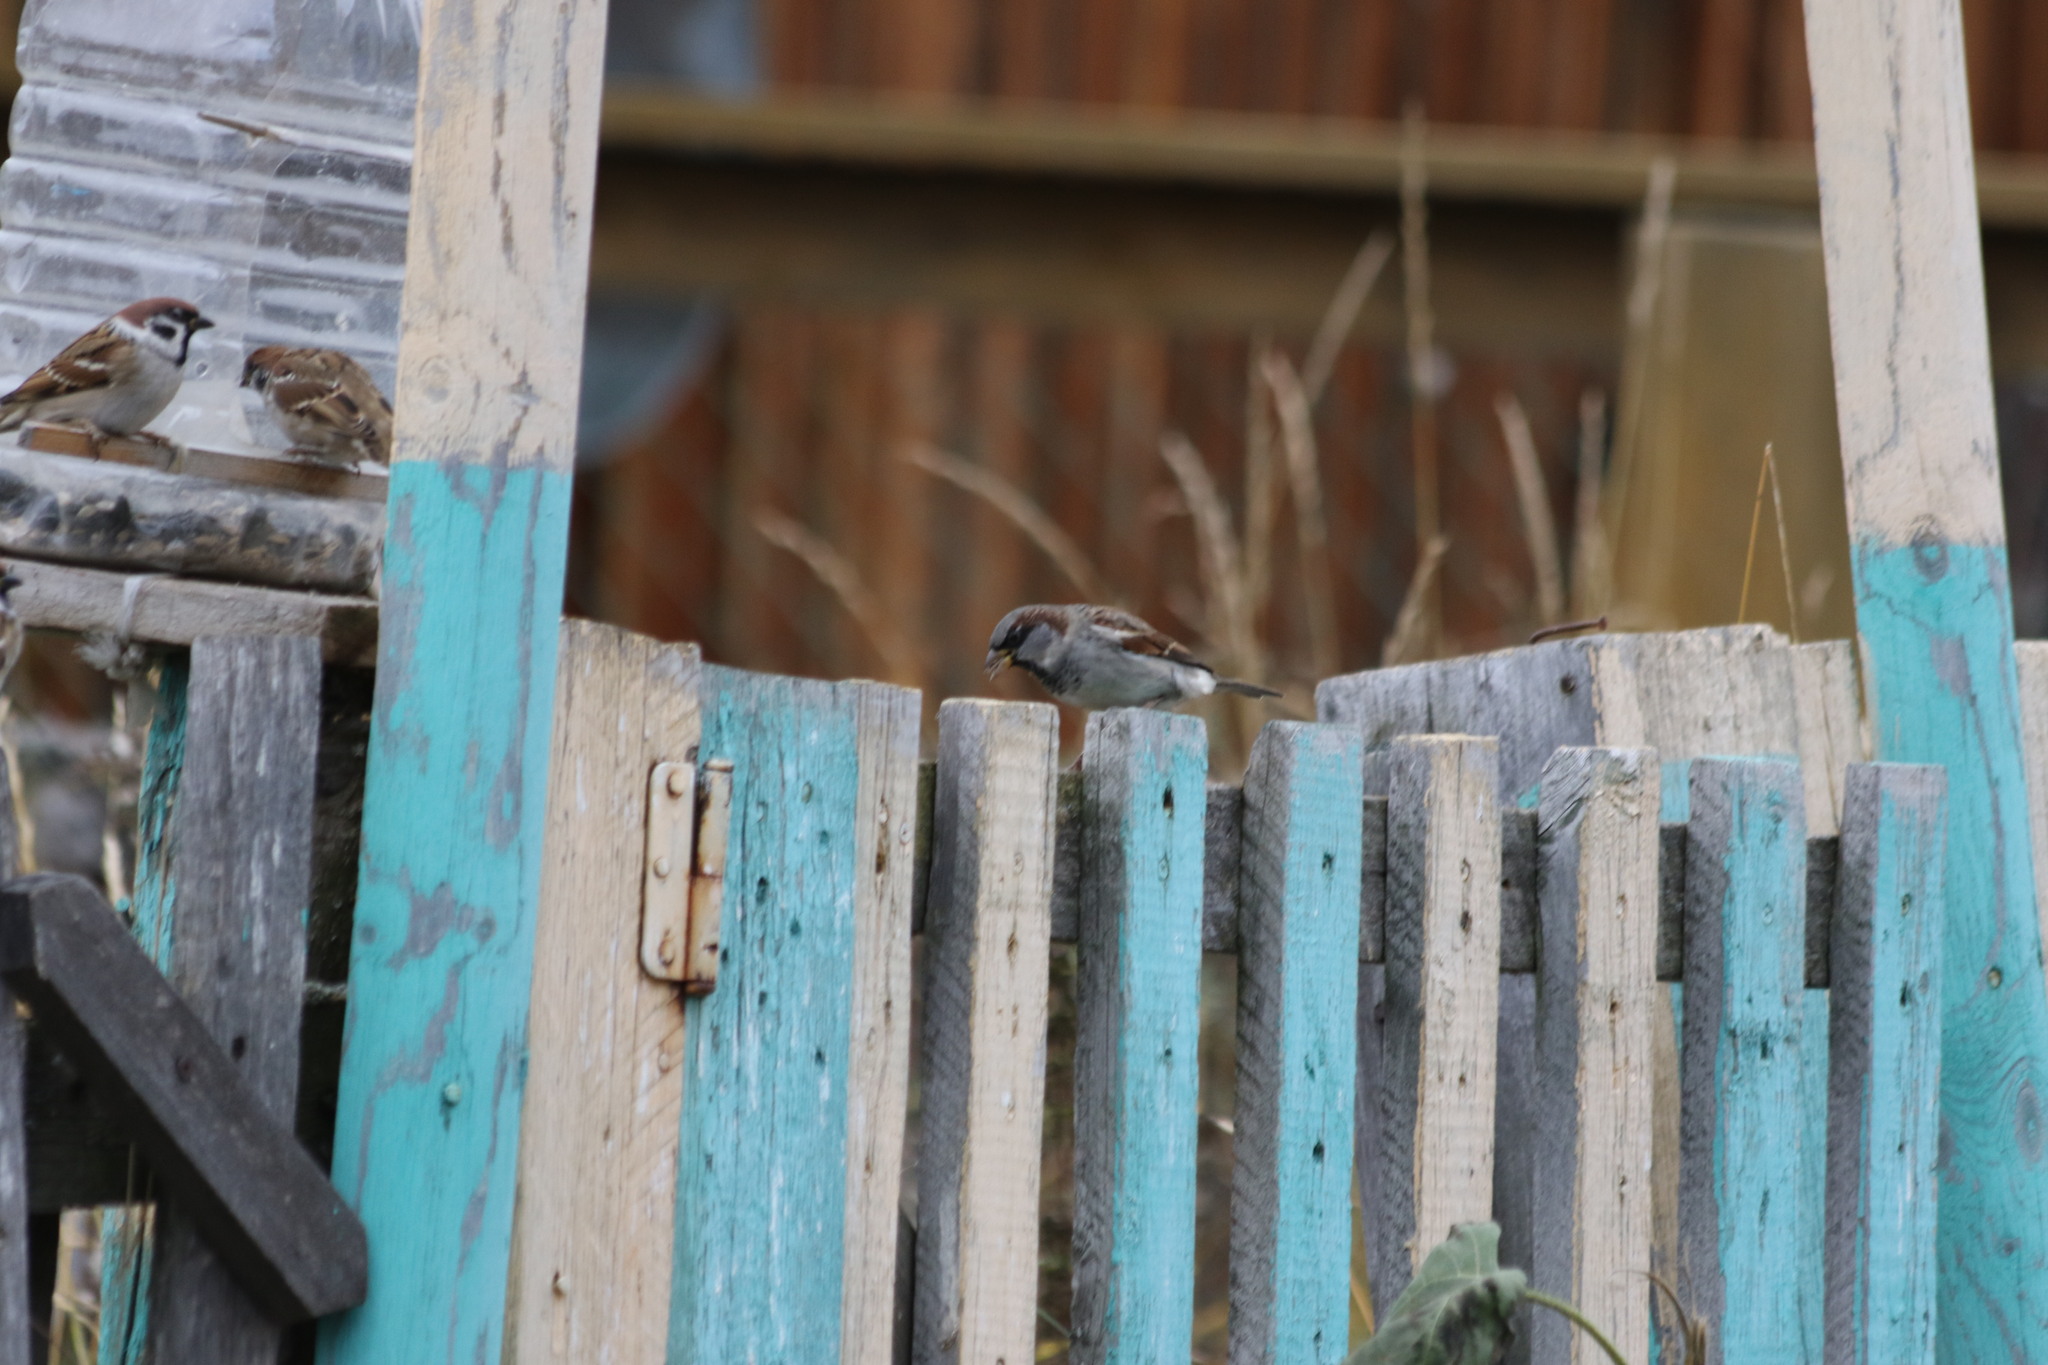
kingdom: Animalia
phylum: Chordata
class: Aves
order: Passeriformes
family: Passeridae
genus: Passer
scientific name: Passer domesticus
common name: House sparrow
